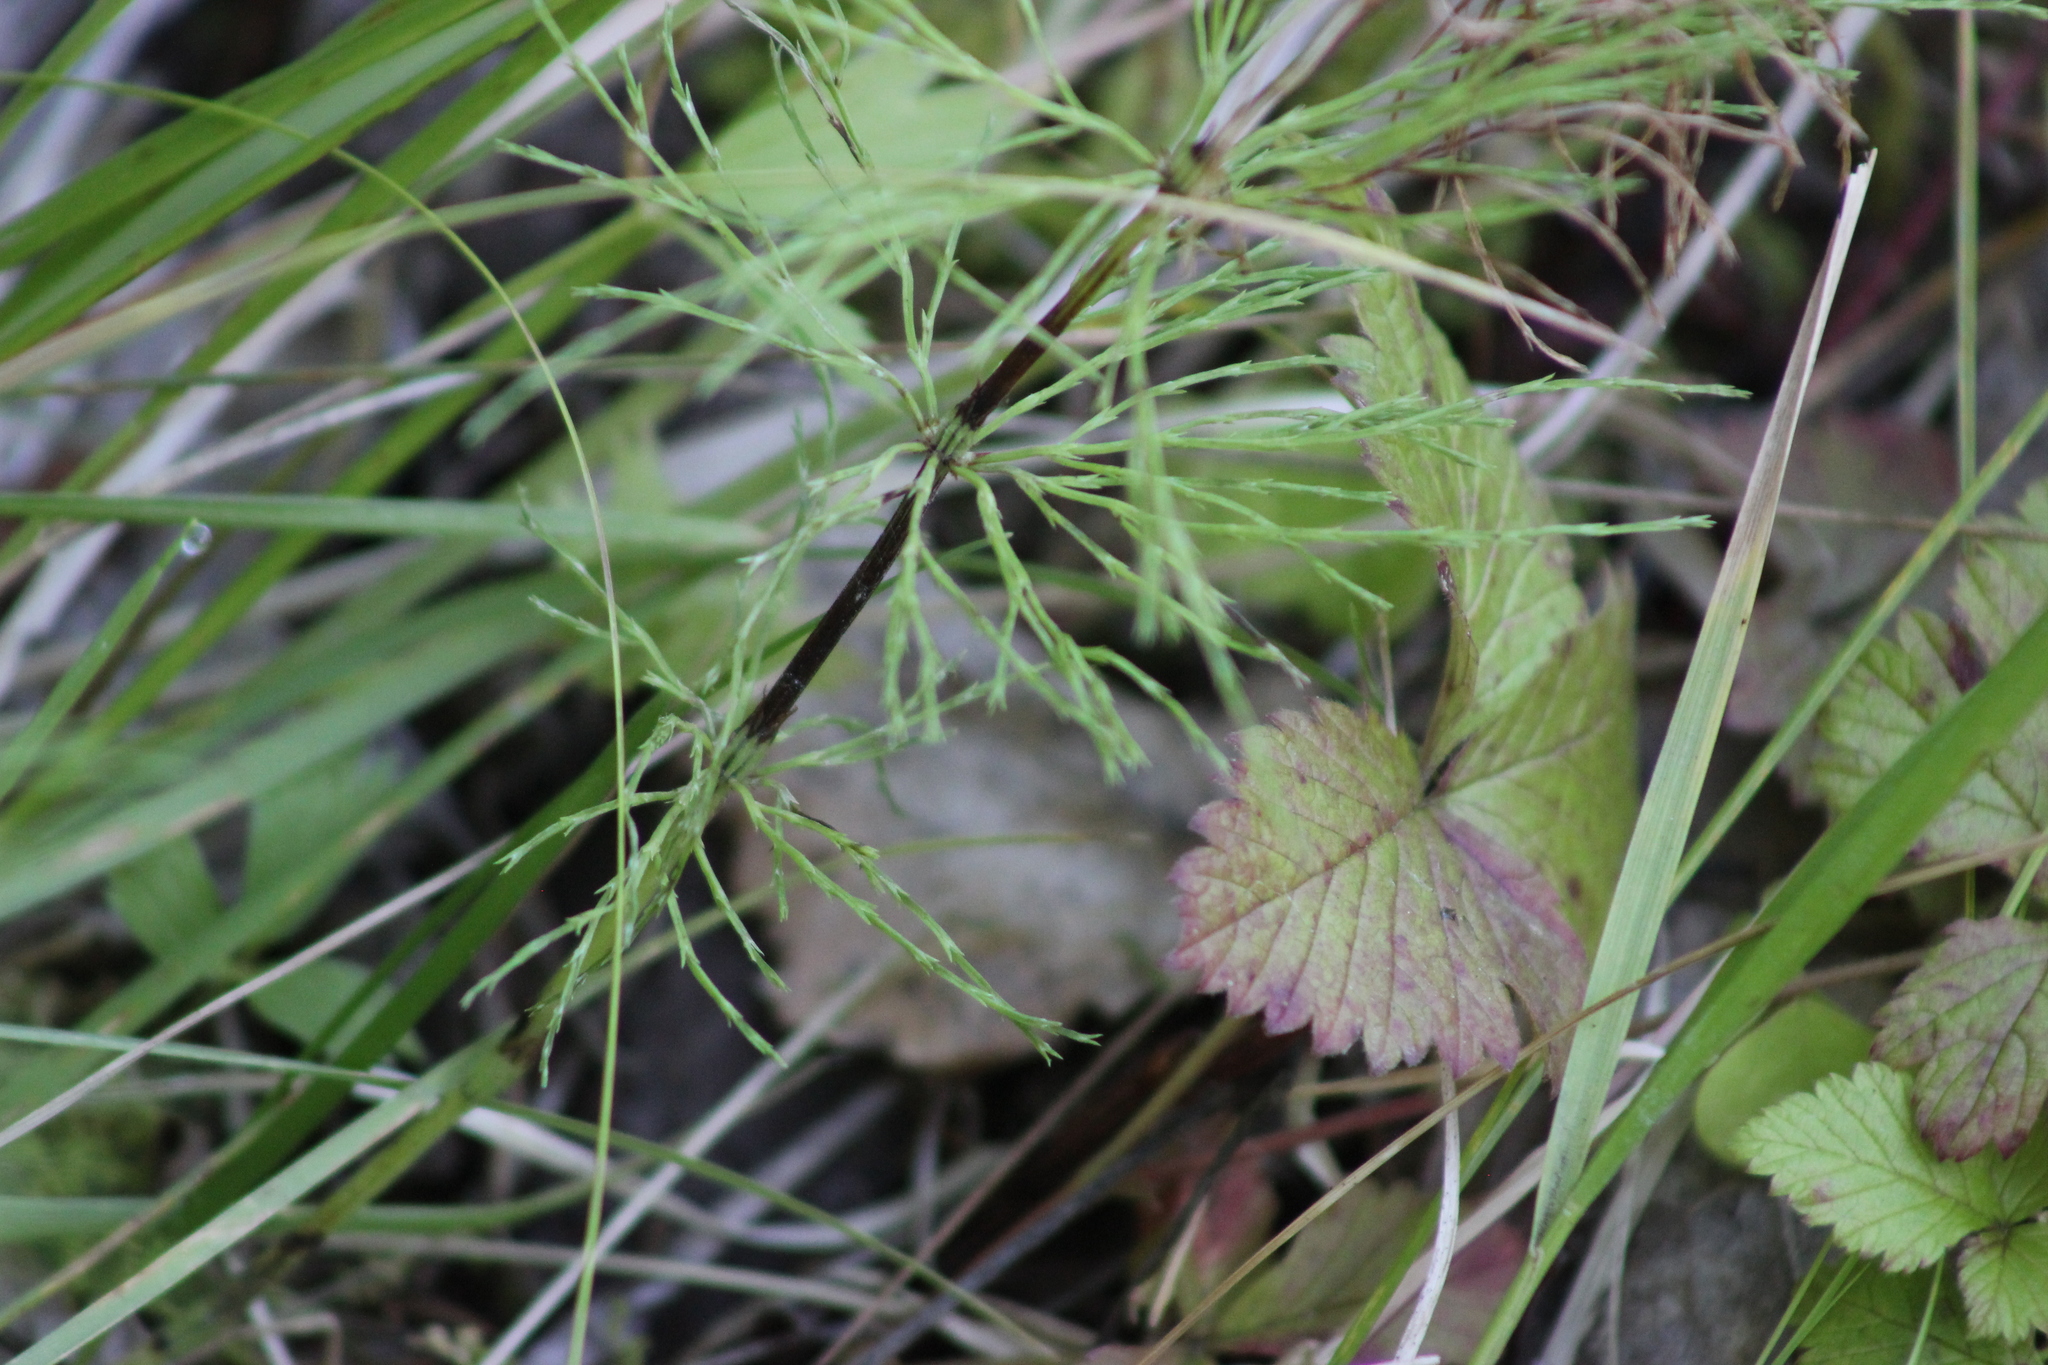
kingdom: Plantae
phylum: Tracheophyta
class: Magnoliopsida
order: Rosales
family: Rosaceae
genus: Rubus
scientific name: Rubus arcticus
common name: Arctic bramble
